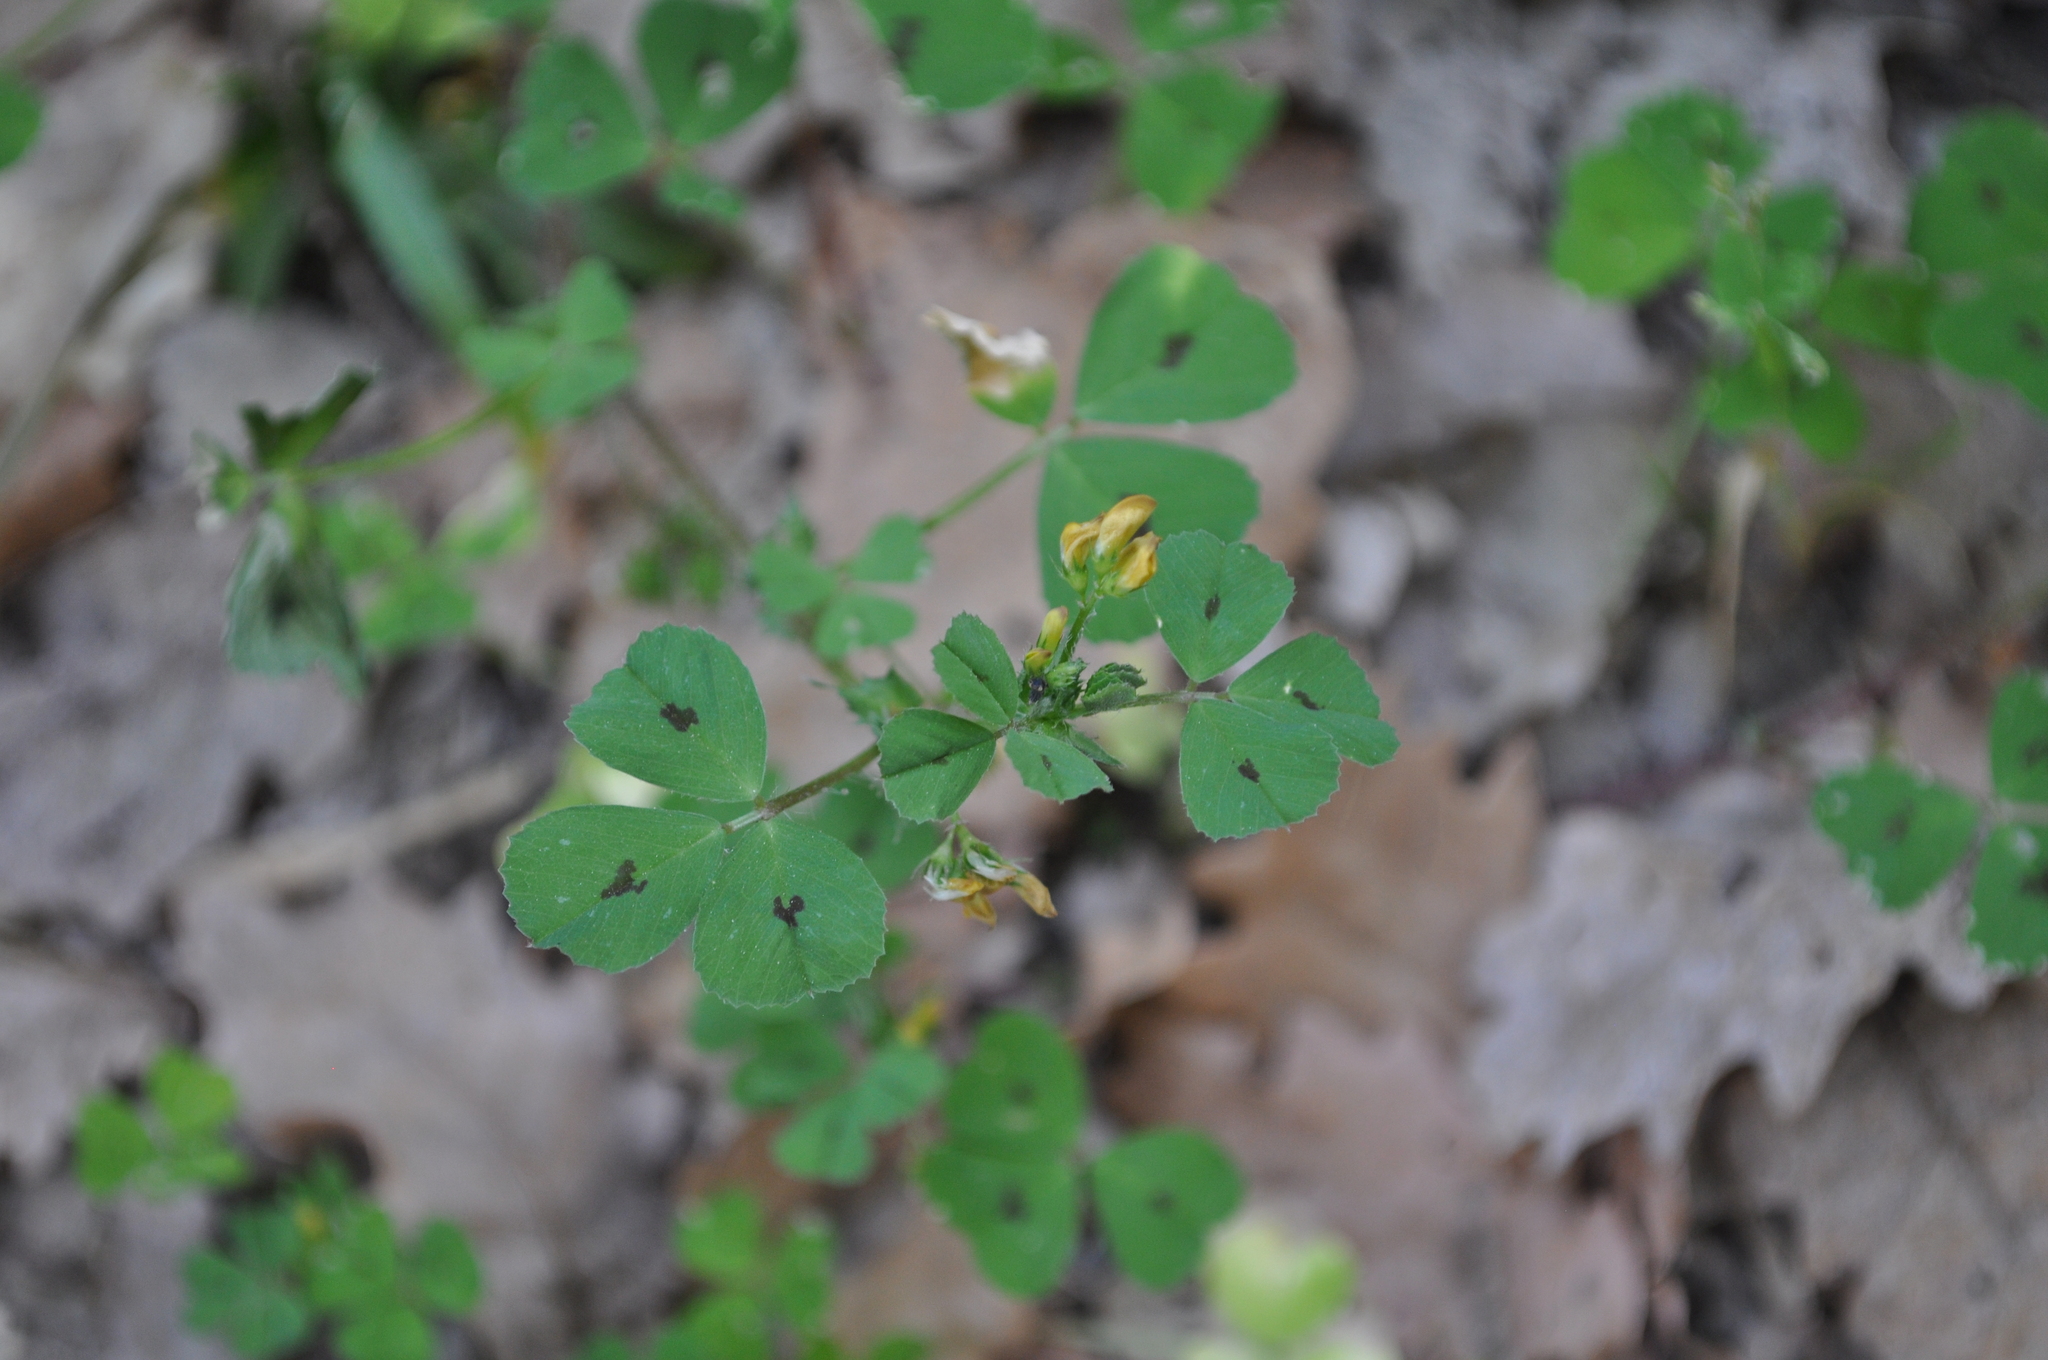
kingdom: Plantae
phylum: Tracheophyta
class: Magnoliopsida
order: Fabales
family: Fabaceae
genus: Medicago
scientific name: Medicago arabica
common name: Spotted medick
